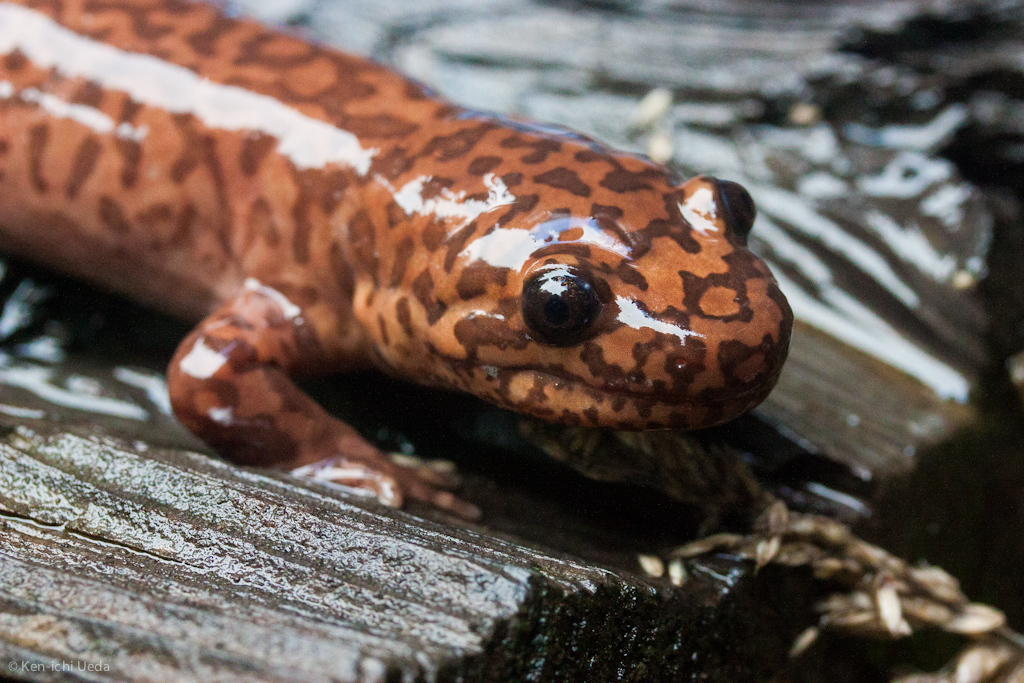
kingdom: Animalia
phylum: Chordata
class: Amphibia
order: Caudata
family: Ambystomatidae
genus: Dicamptodon
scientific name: Dicamptodon ensatus
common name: California giant salamander
